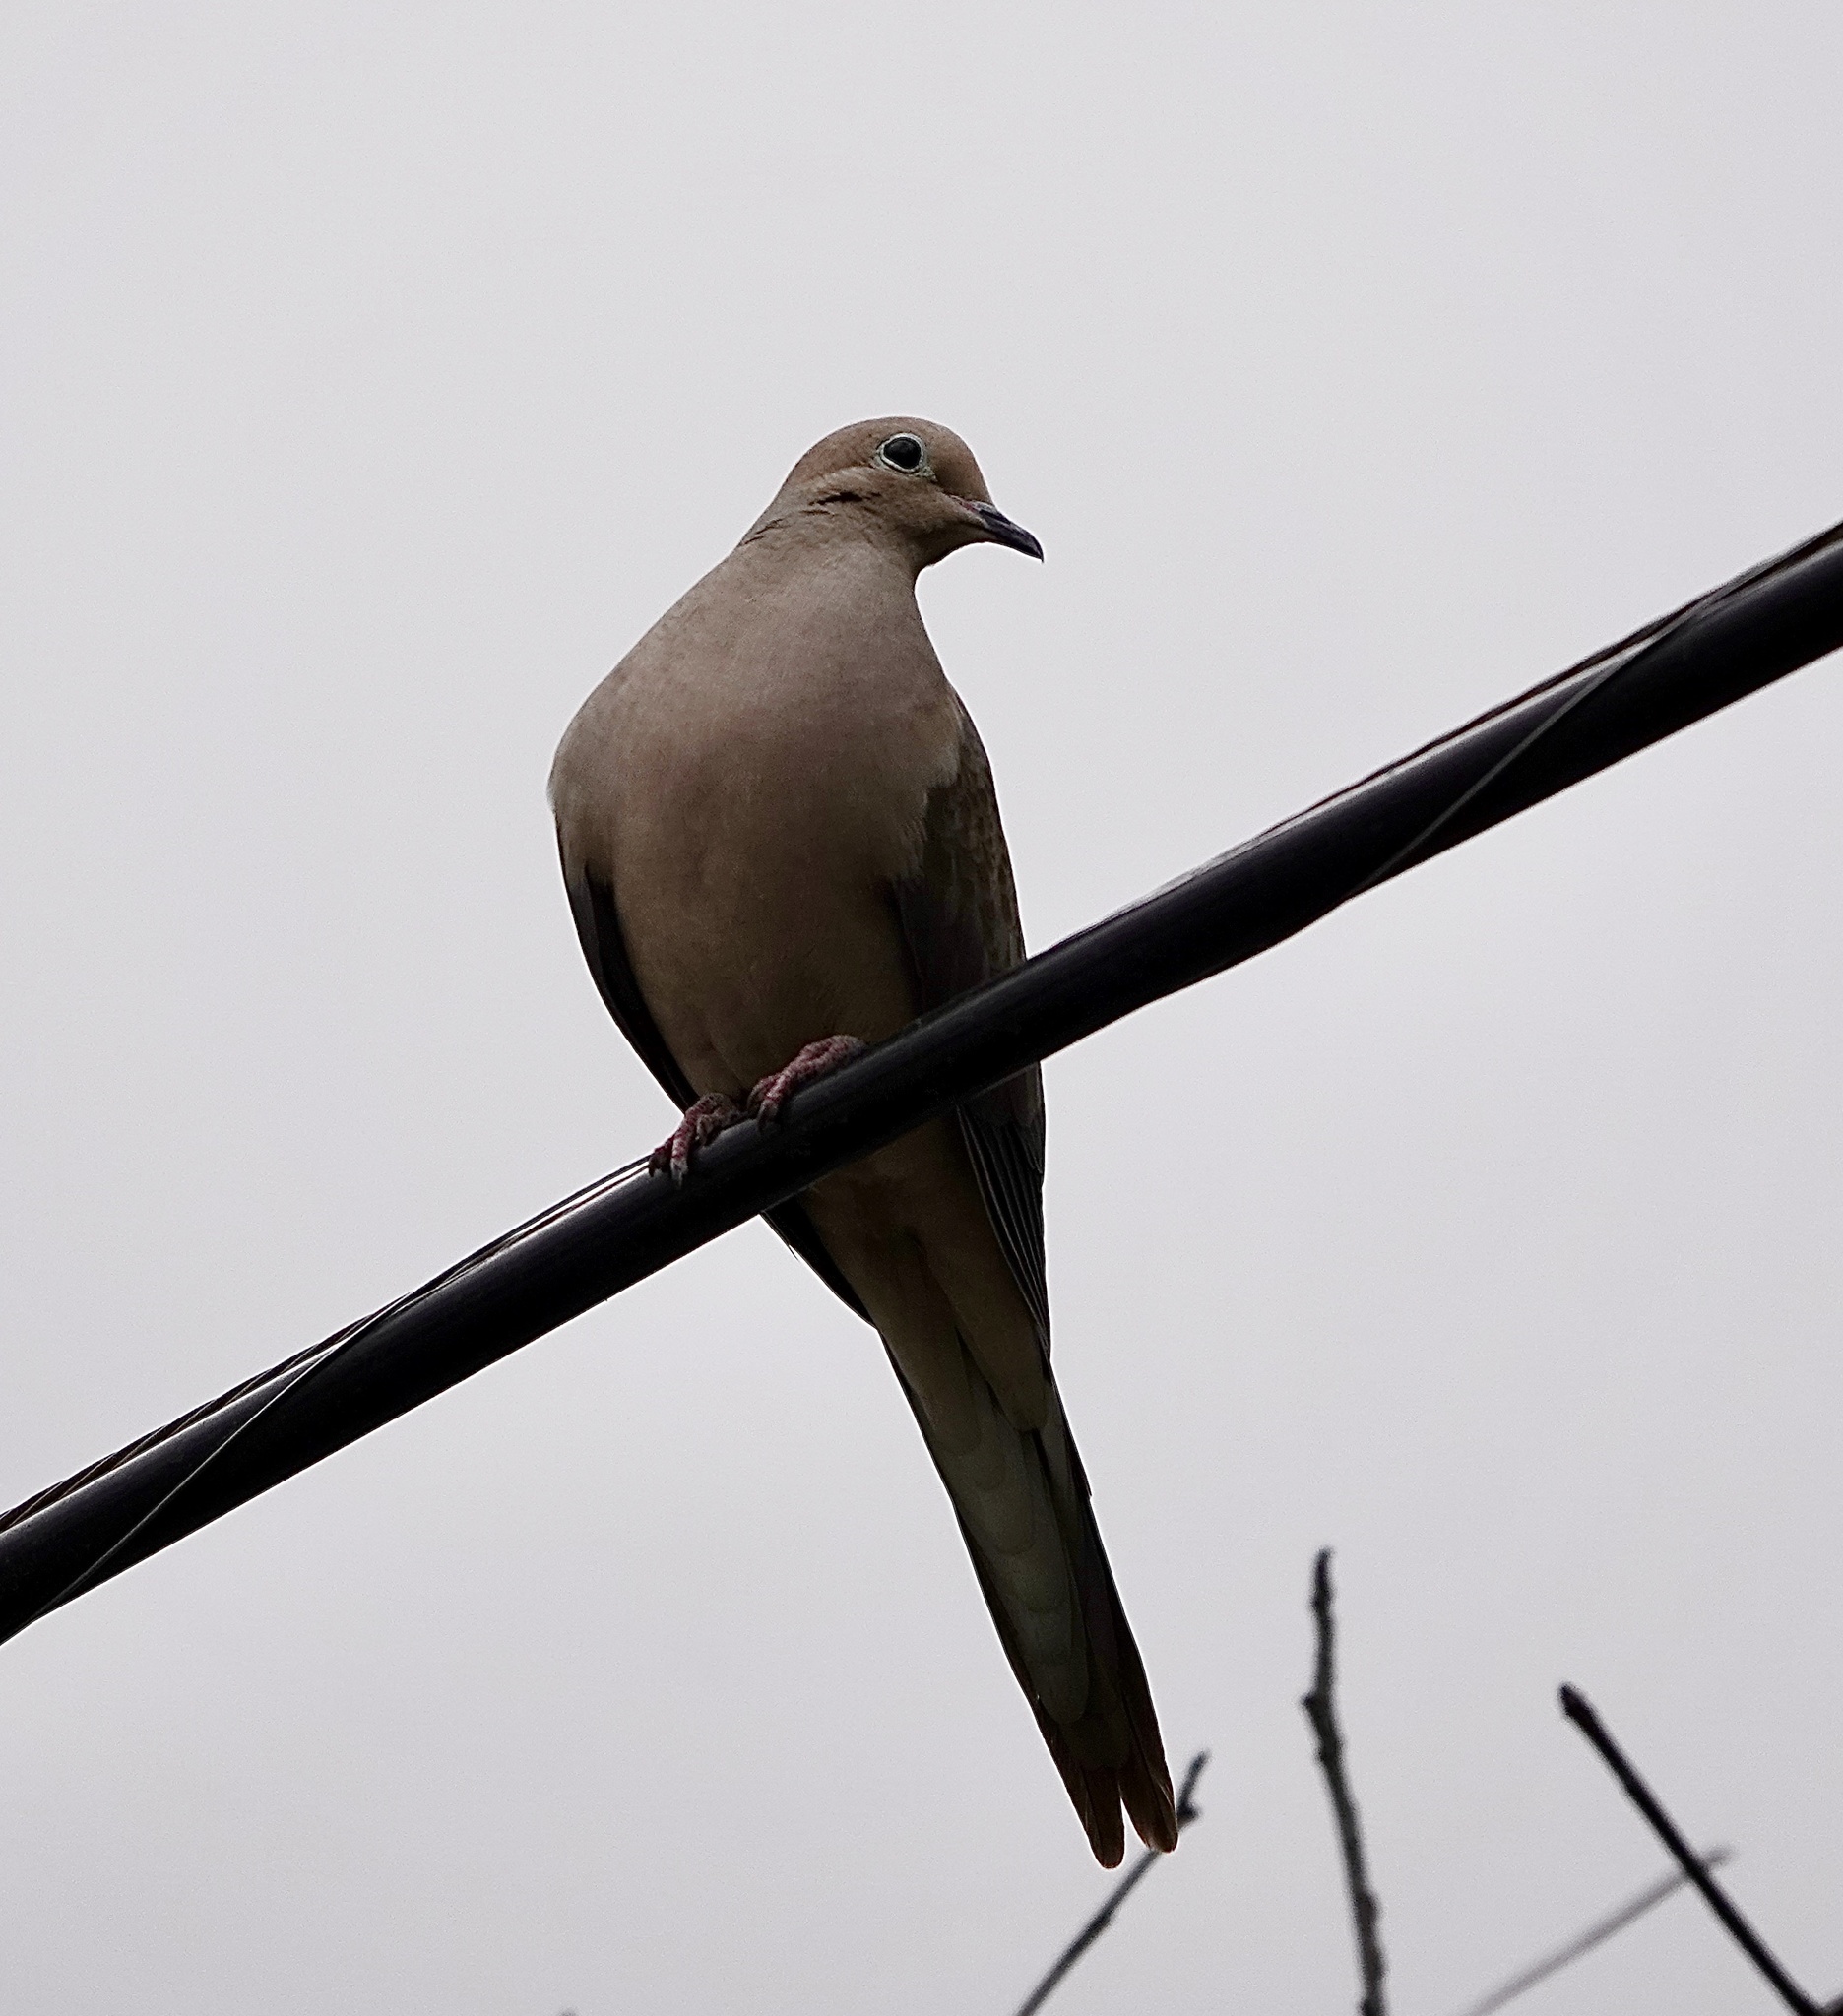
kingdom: Animalia
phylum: Chordata
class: Aves
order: Columbiformes
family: Columbidae
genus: Zenaida
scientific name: Zenaida macroura
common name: Mourning dove
